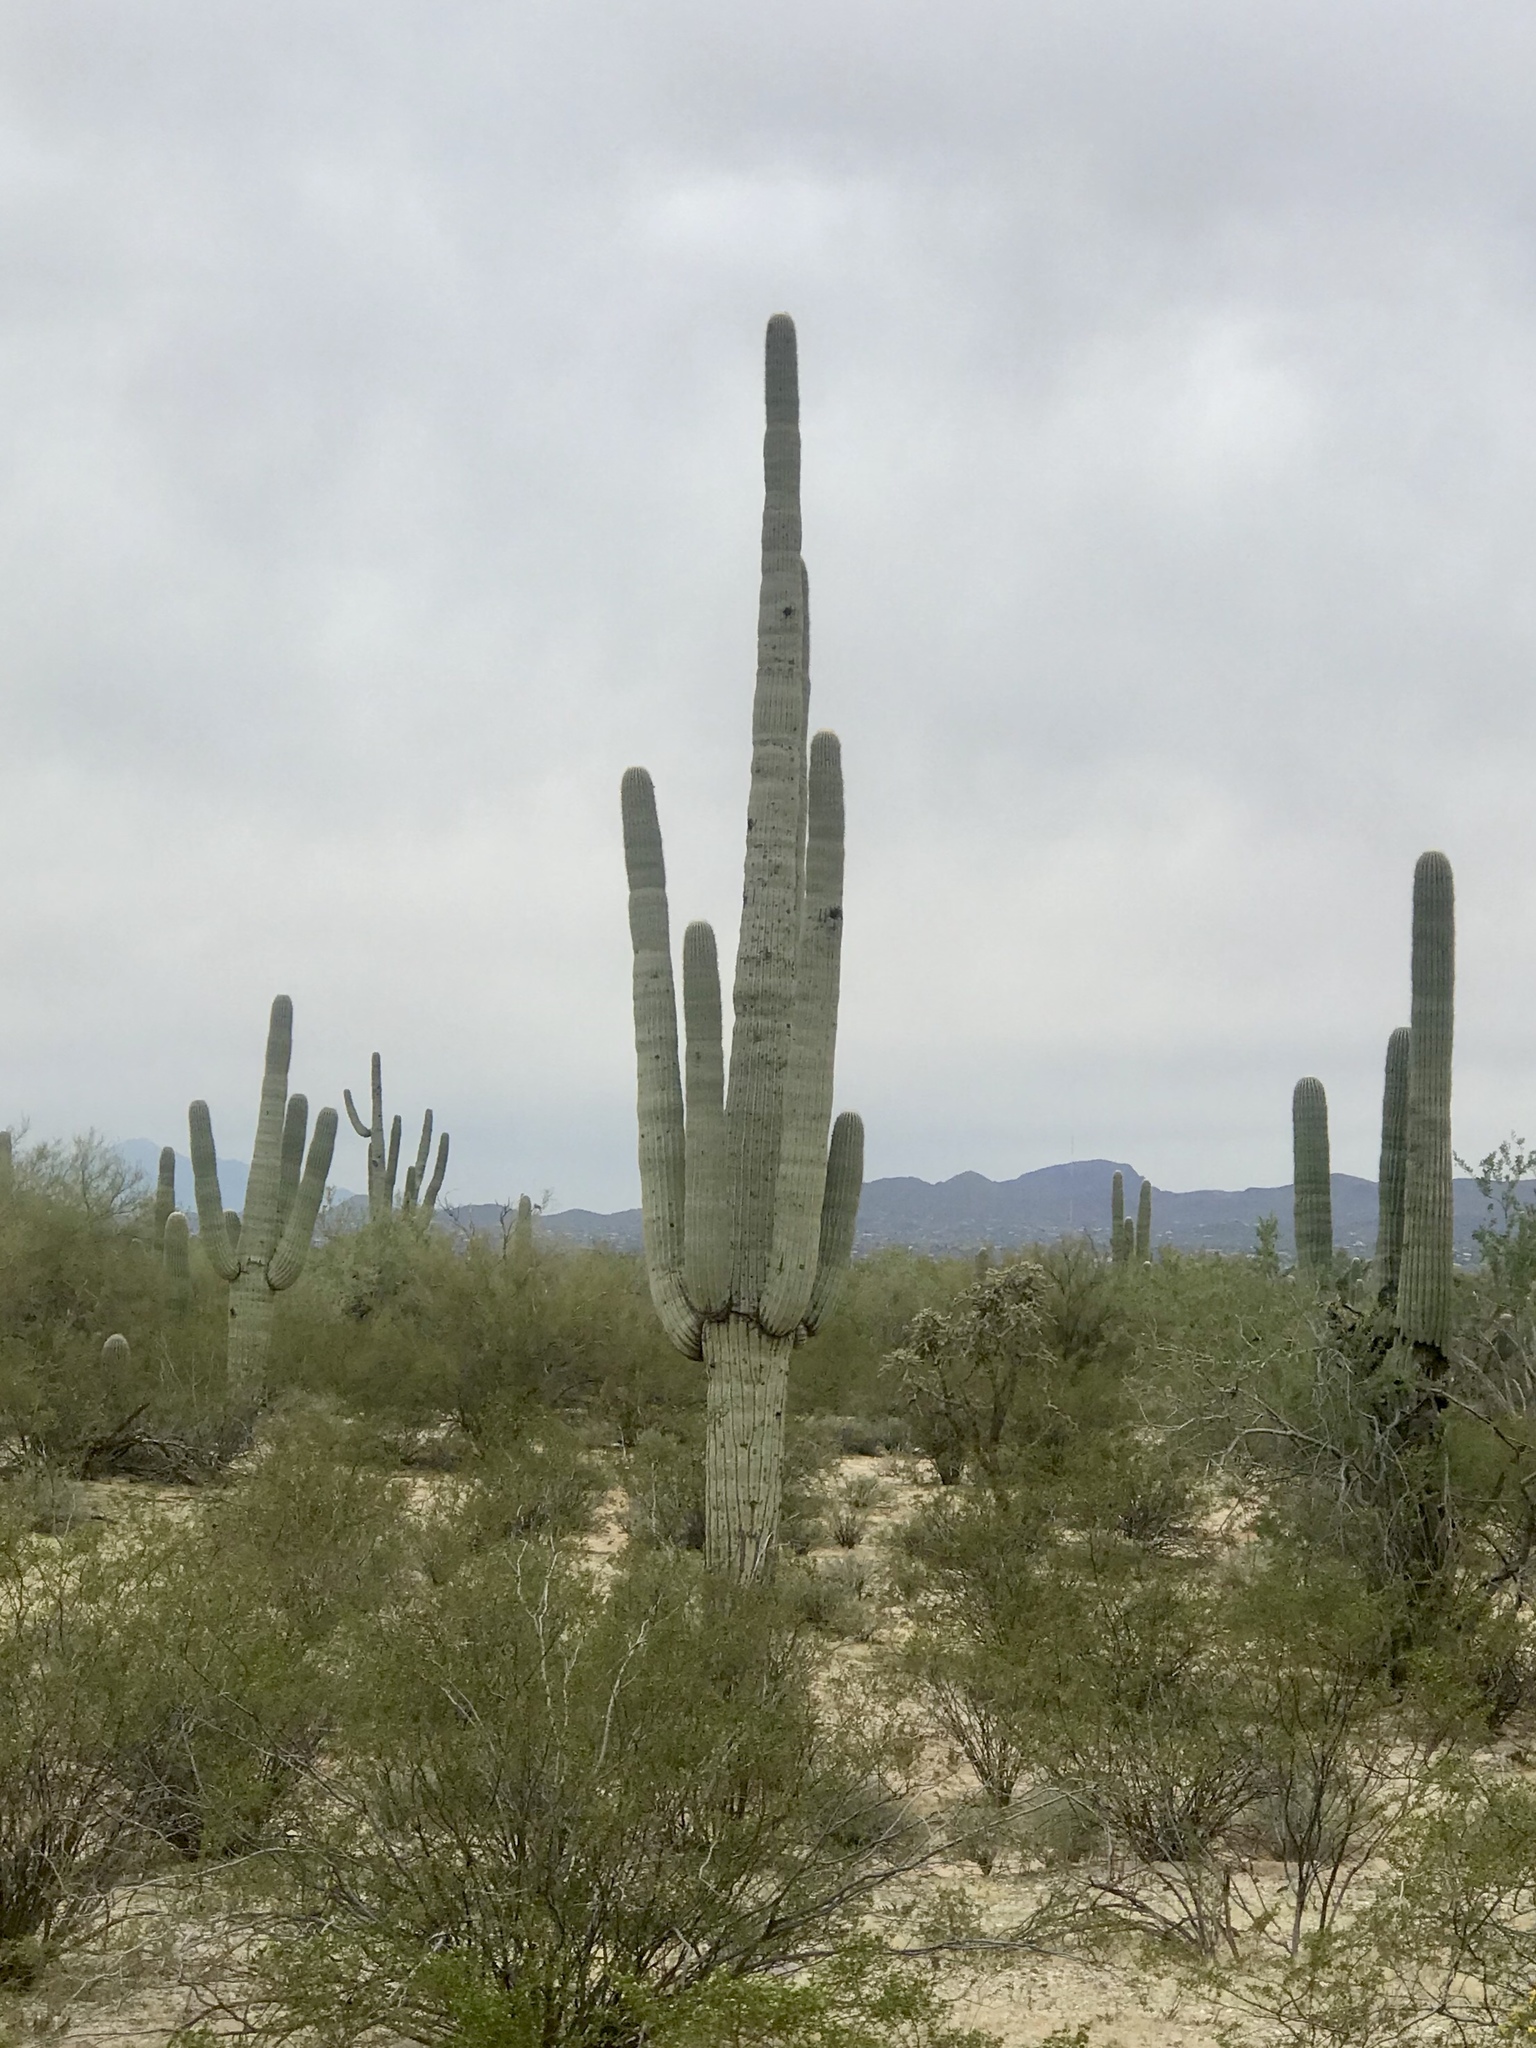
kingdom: Plantae
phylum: Tracheophyta
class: Magnoliopsida
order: Caryophyllales
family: Cactaceae
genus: Carnegiea
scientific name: Carnegiea gigantea
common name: Saguaro
